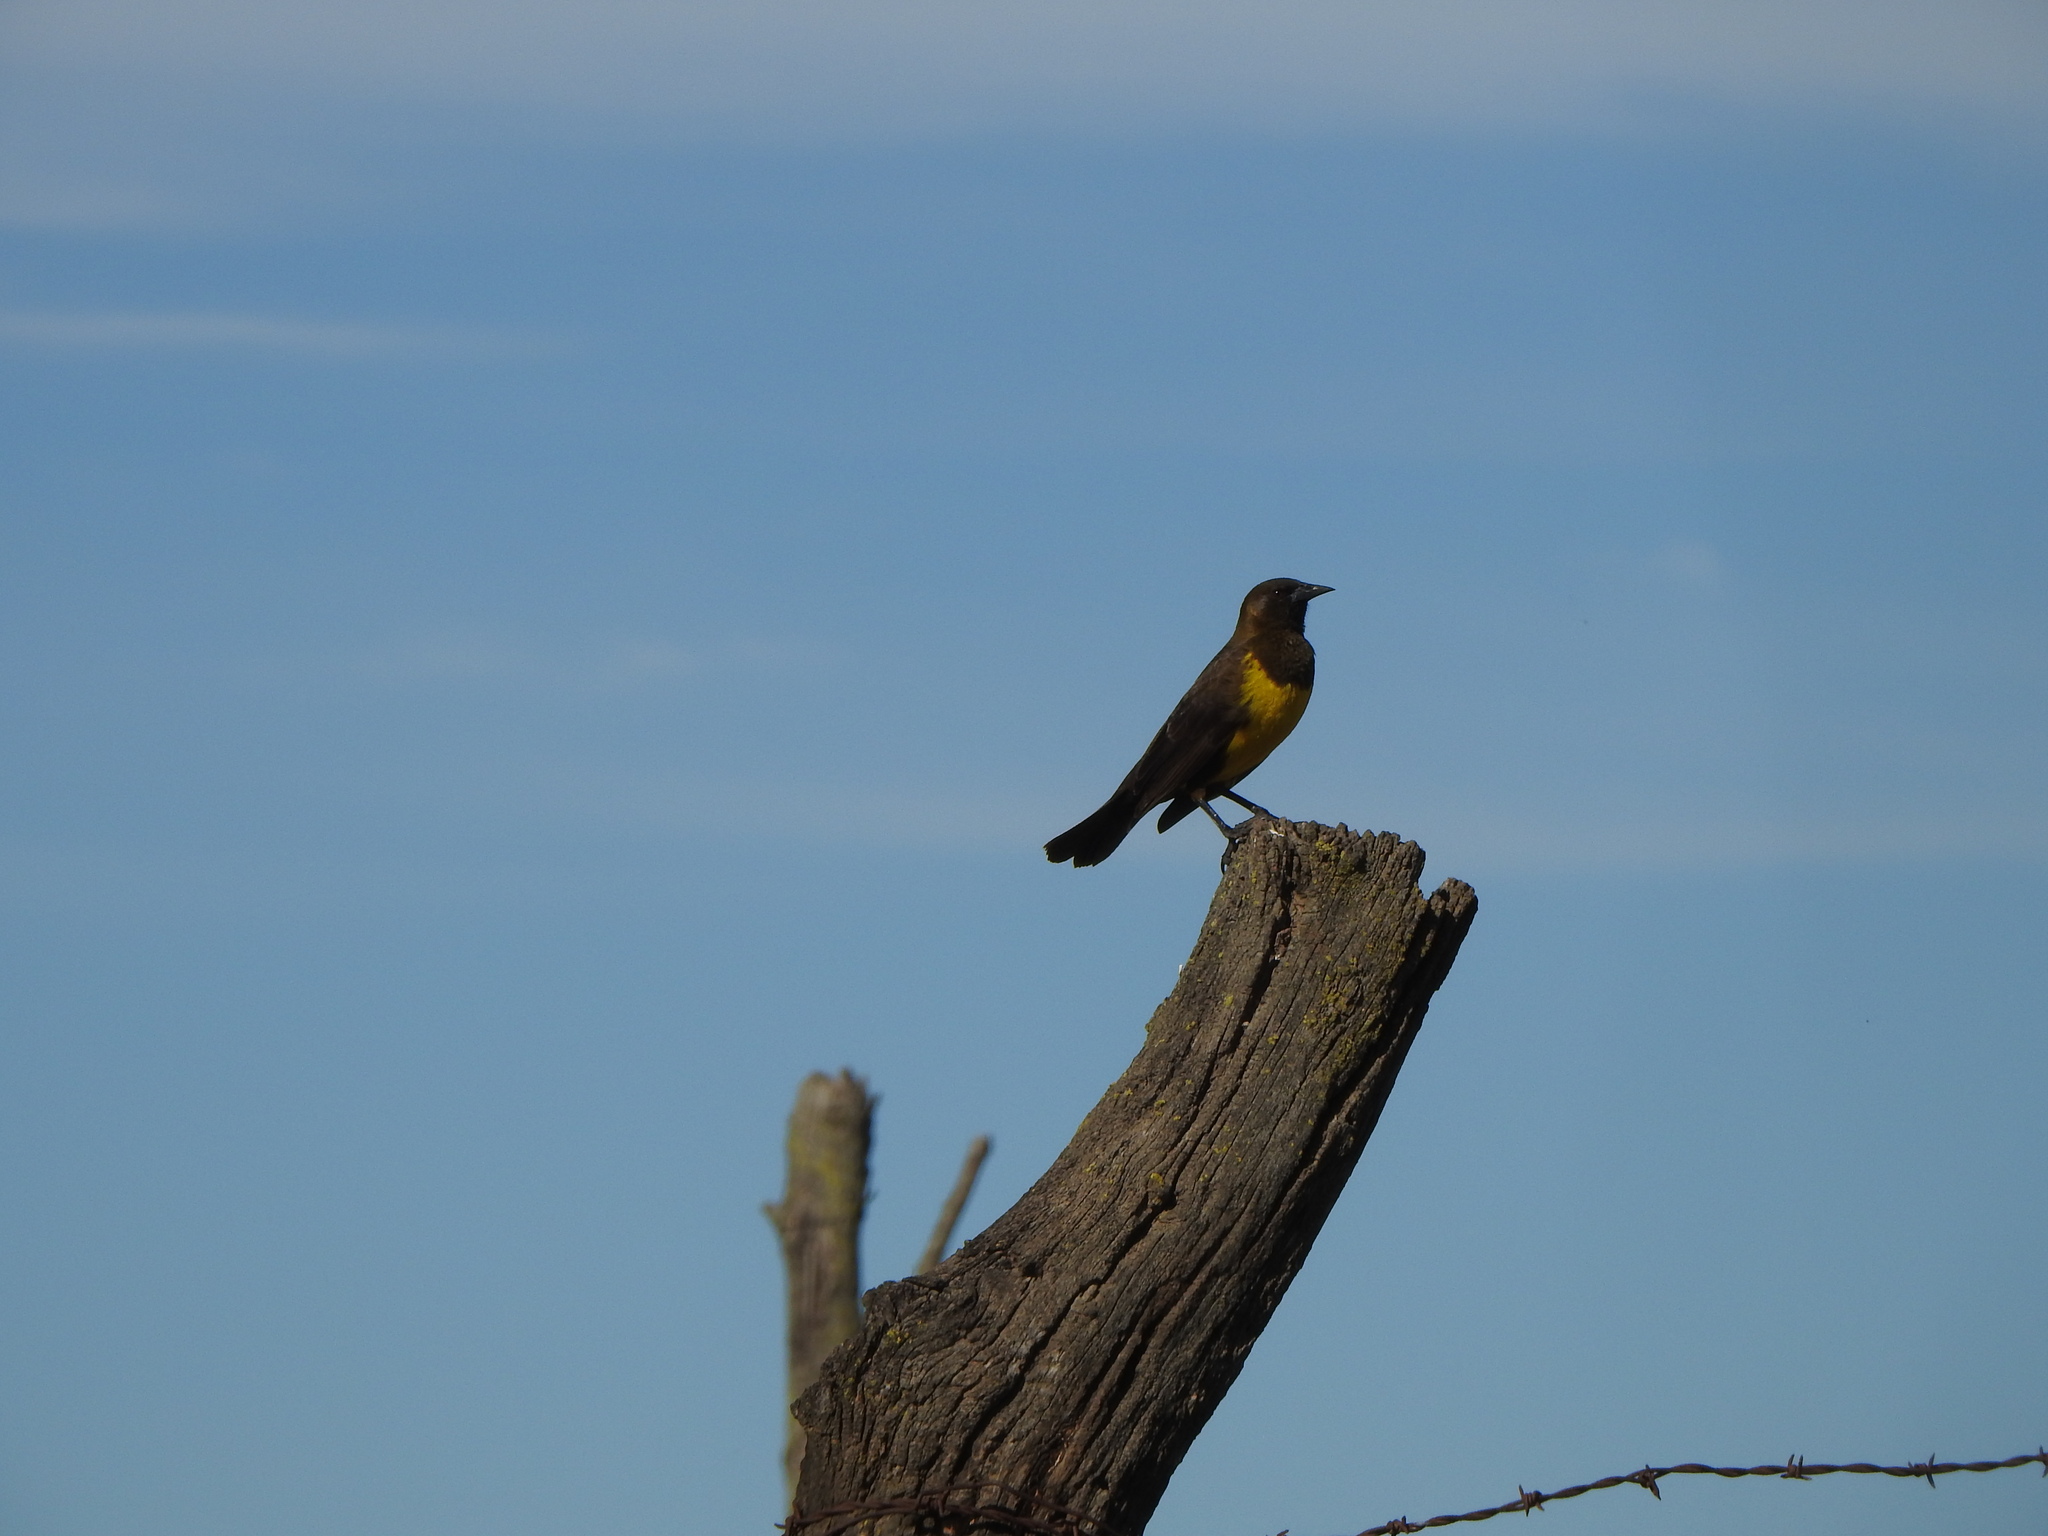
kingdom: Animalia
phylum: Chordata
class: Aves
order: Passeriformes
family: Icteridae
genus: Pseudoleistes
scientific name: Pseudoleistes virescens
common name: Brown-and-yellow marshbird
